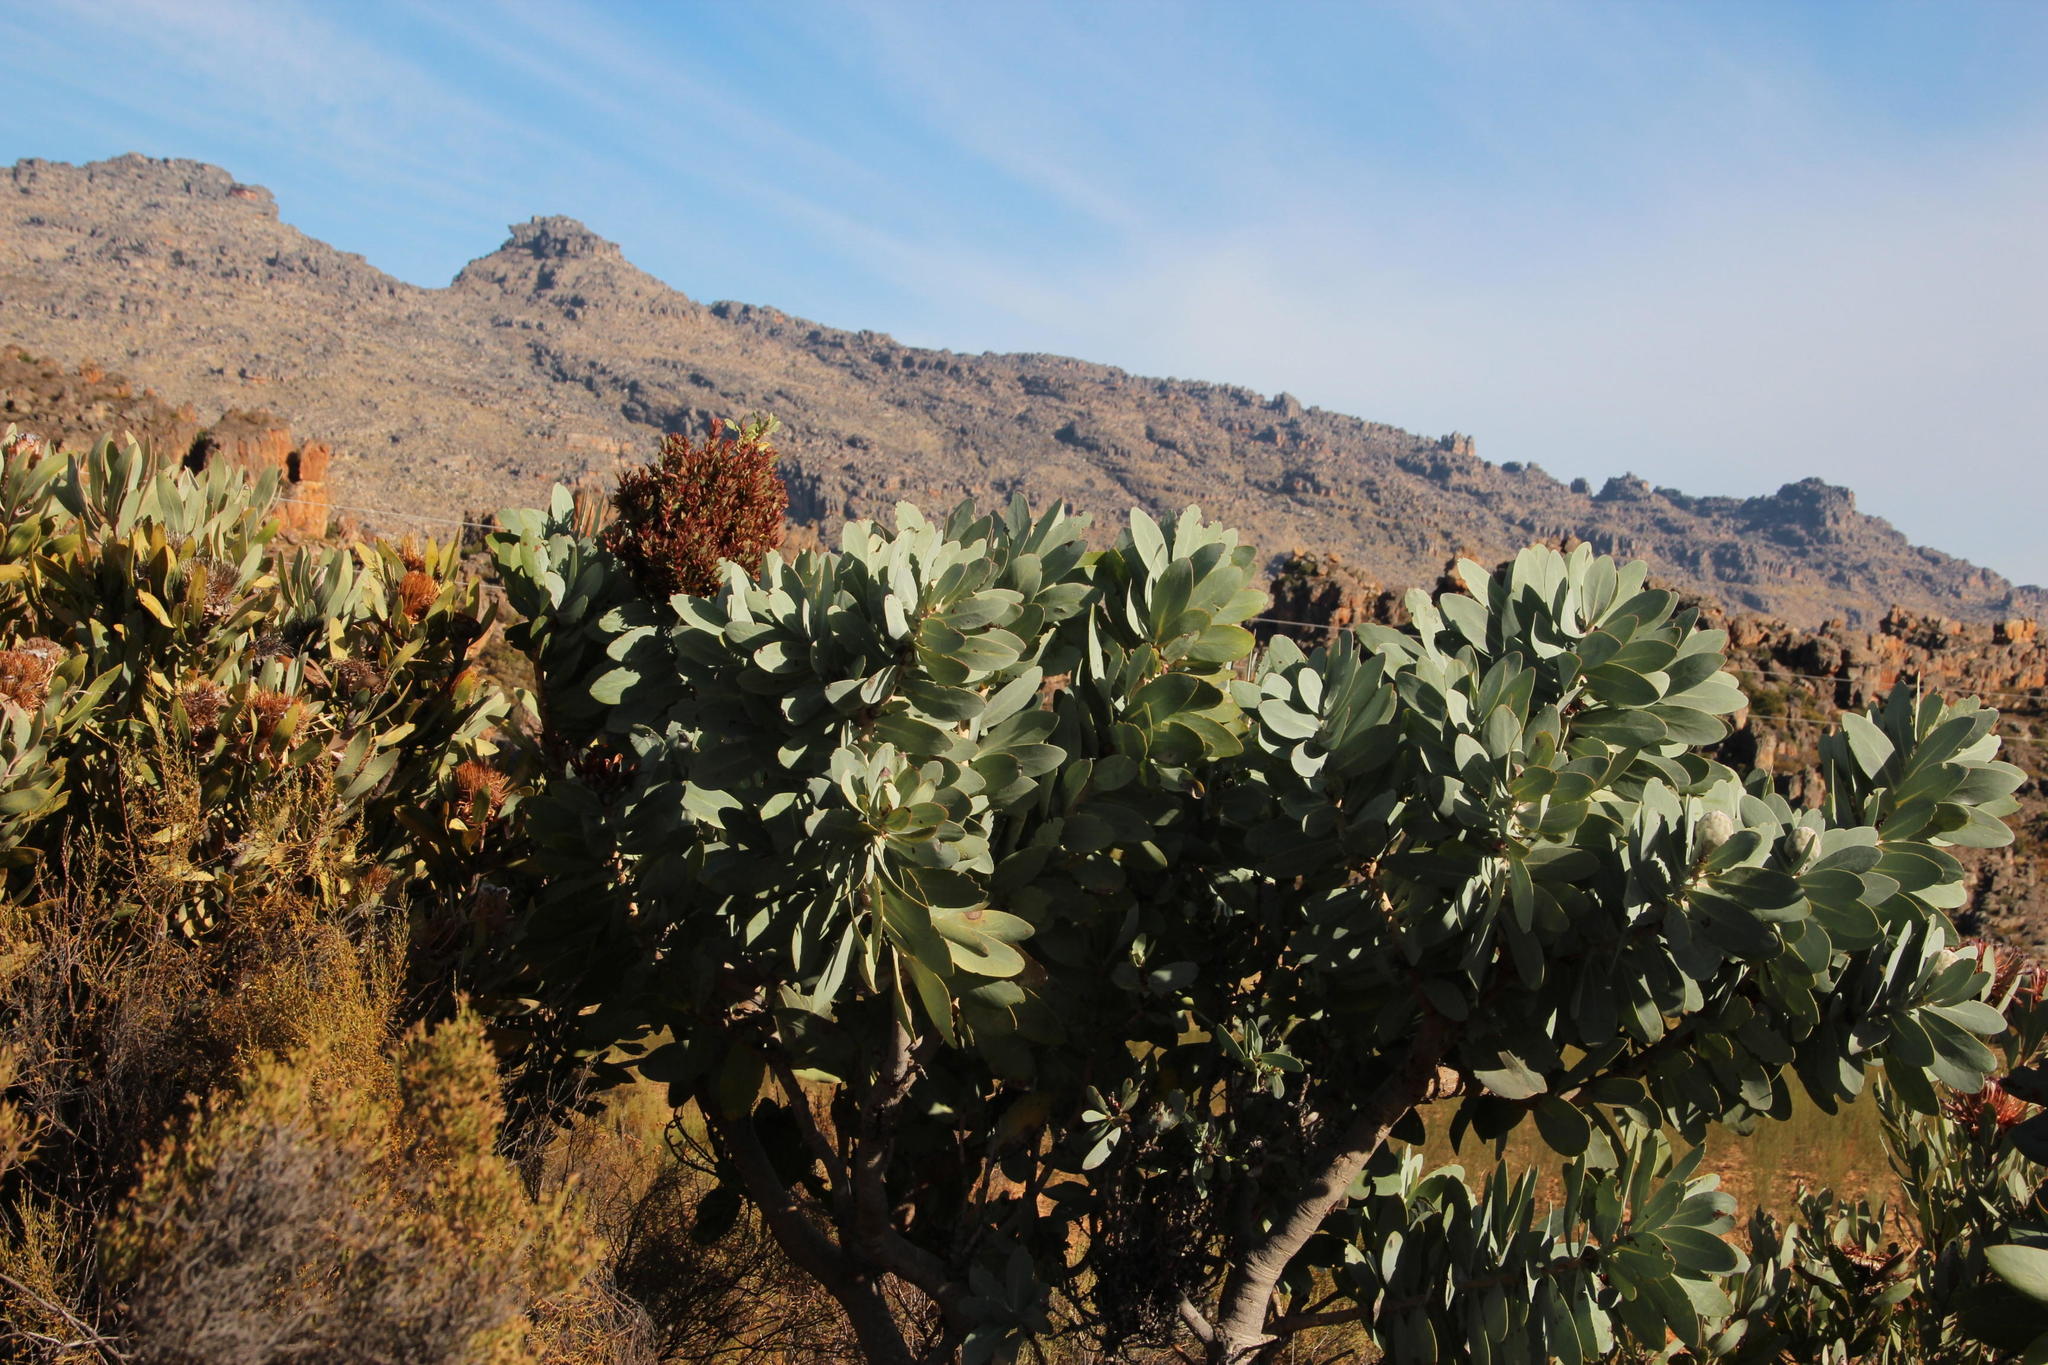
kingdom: Plantae
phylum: Tracheophyta
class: Magnoliopsida
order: Proteales
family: Proteaceae
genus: Protea
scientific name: Protea nitida
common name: Tree protea
